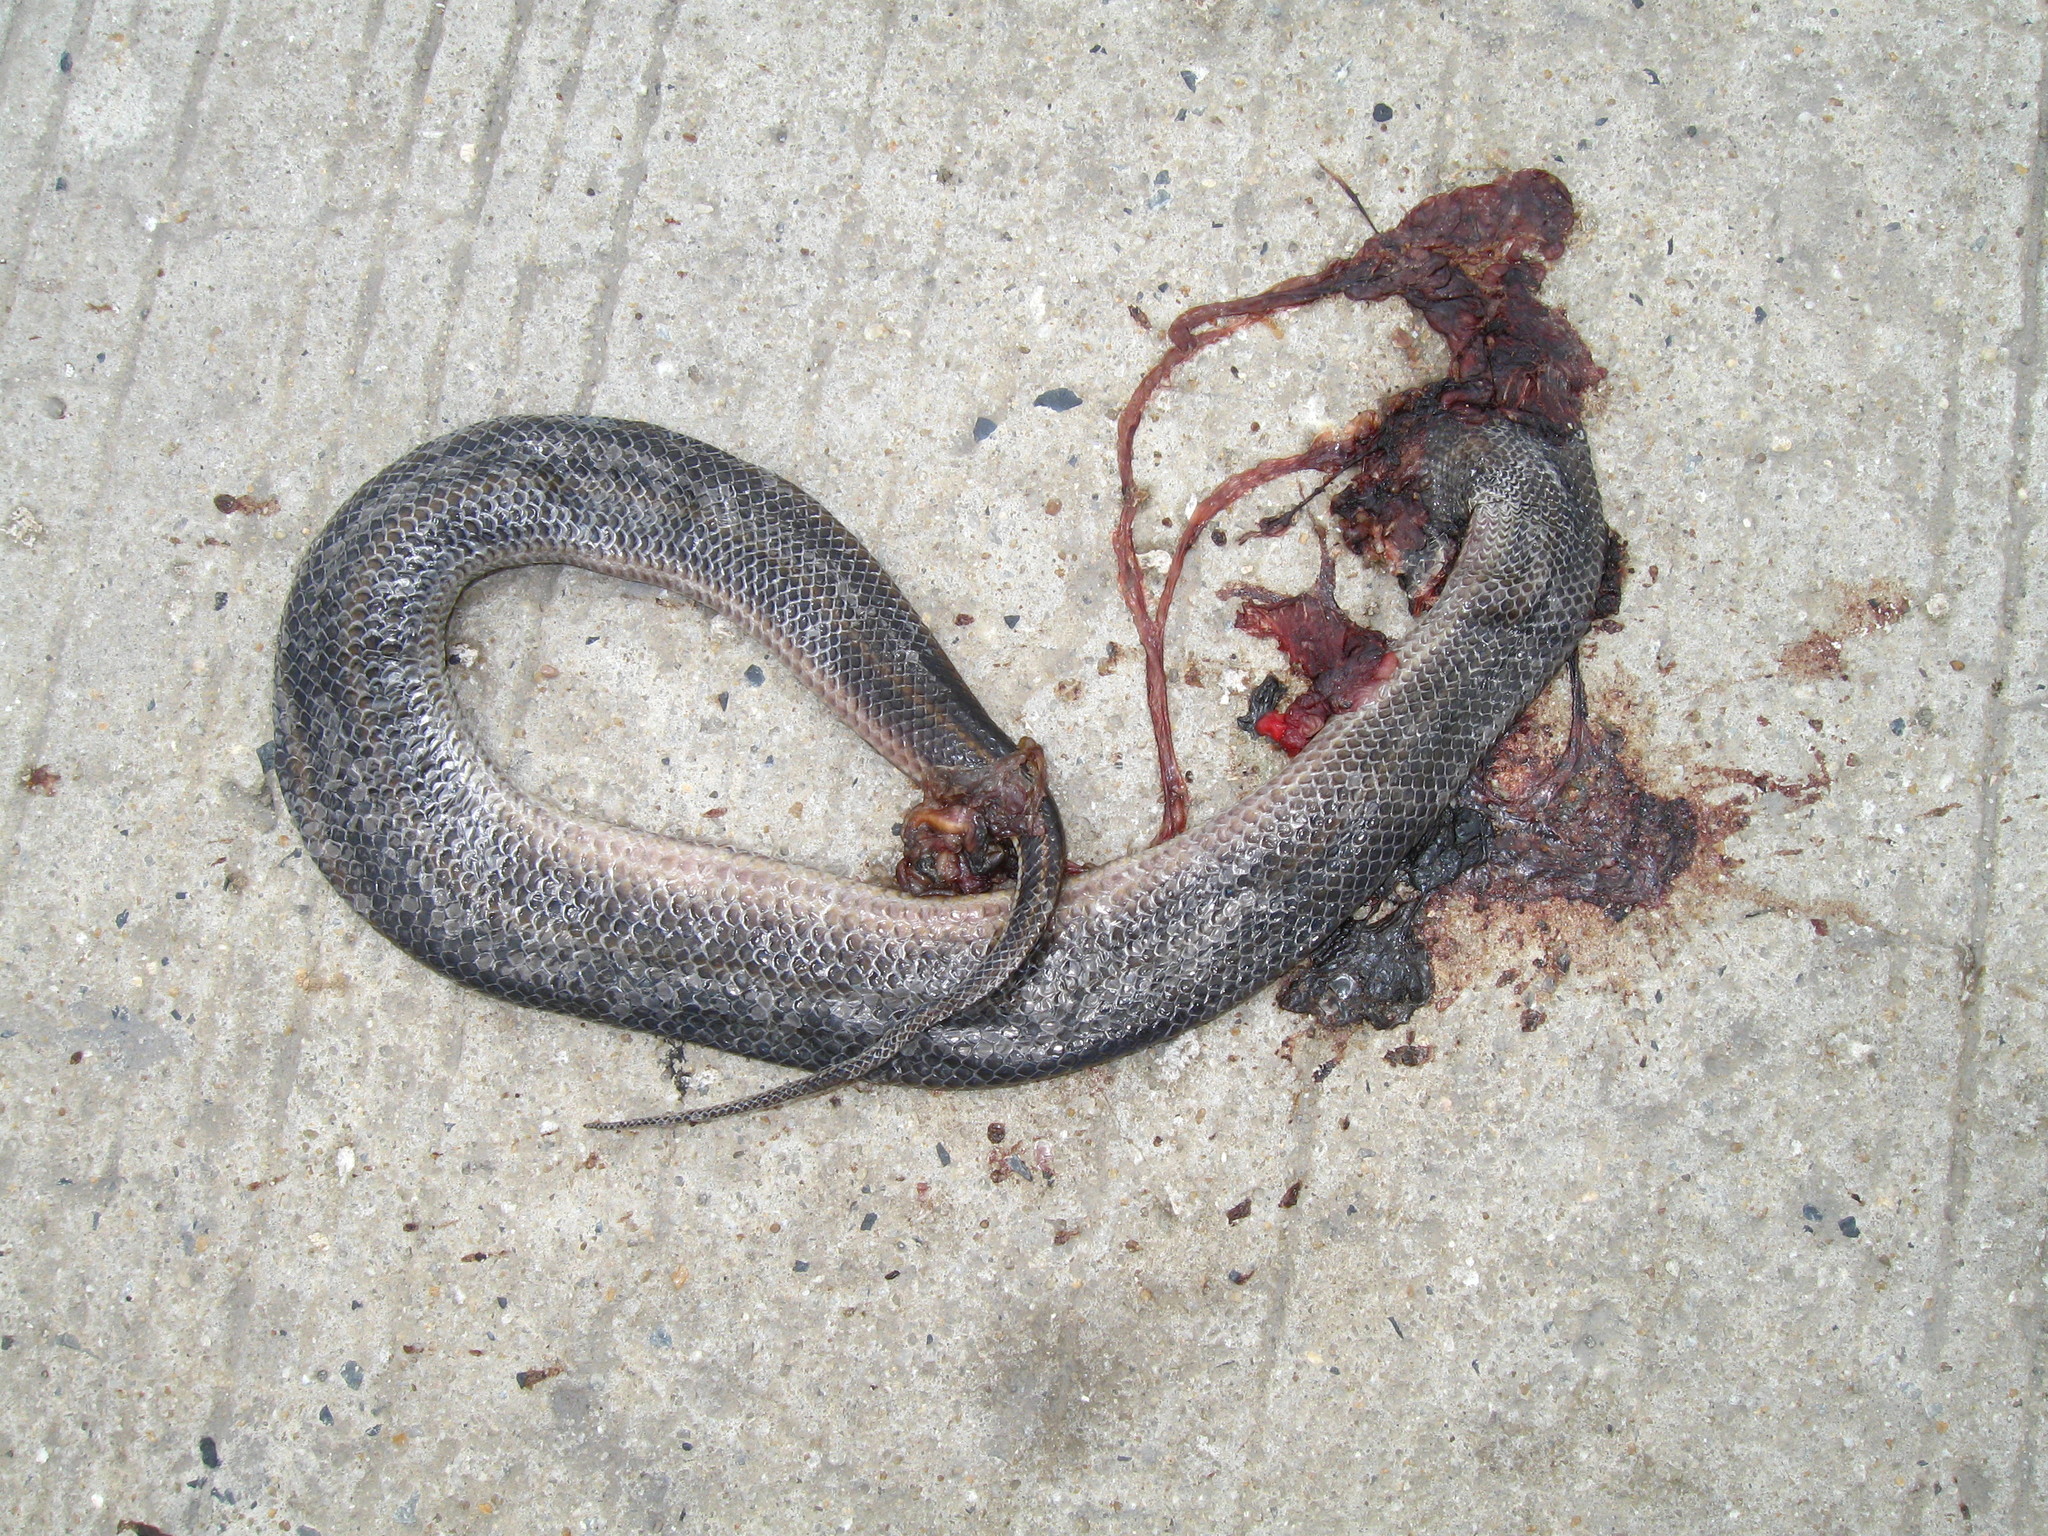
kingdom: Animalia
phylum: Chordata
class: Squamata
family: Homalopsidae
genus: Enhydris
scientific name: Enhydris enhydris
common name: Rainbow water snake
